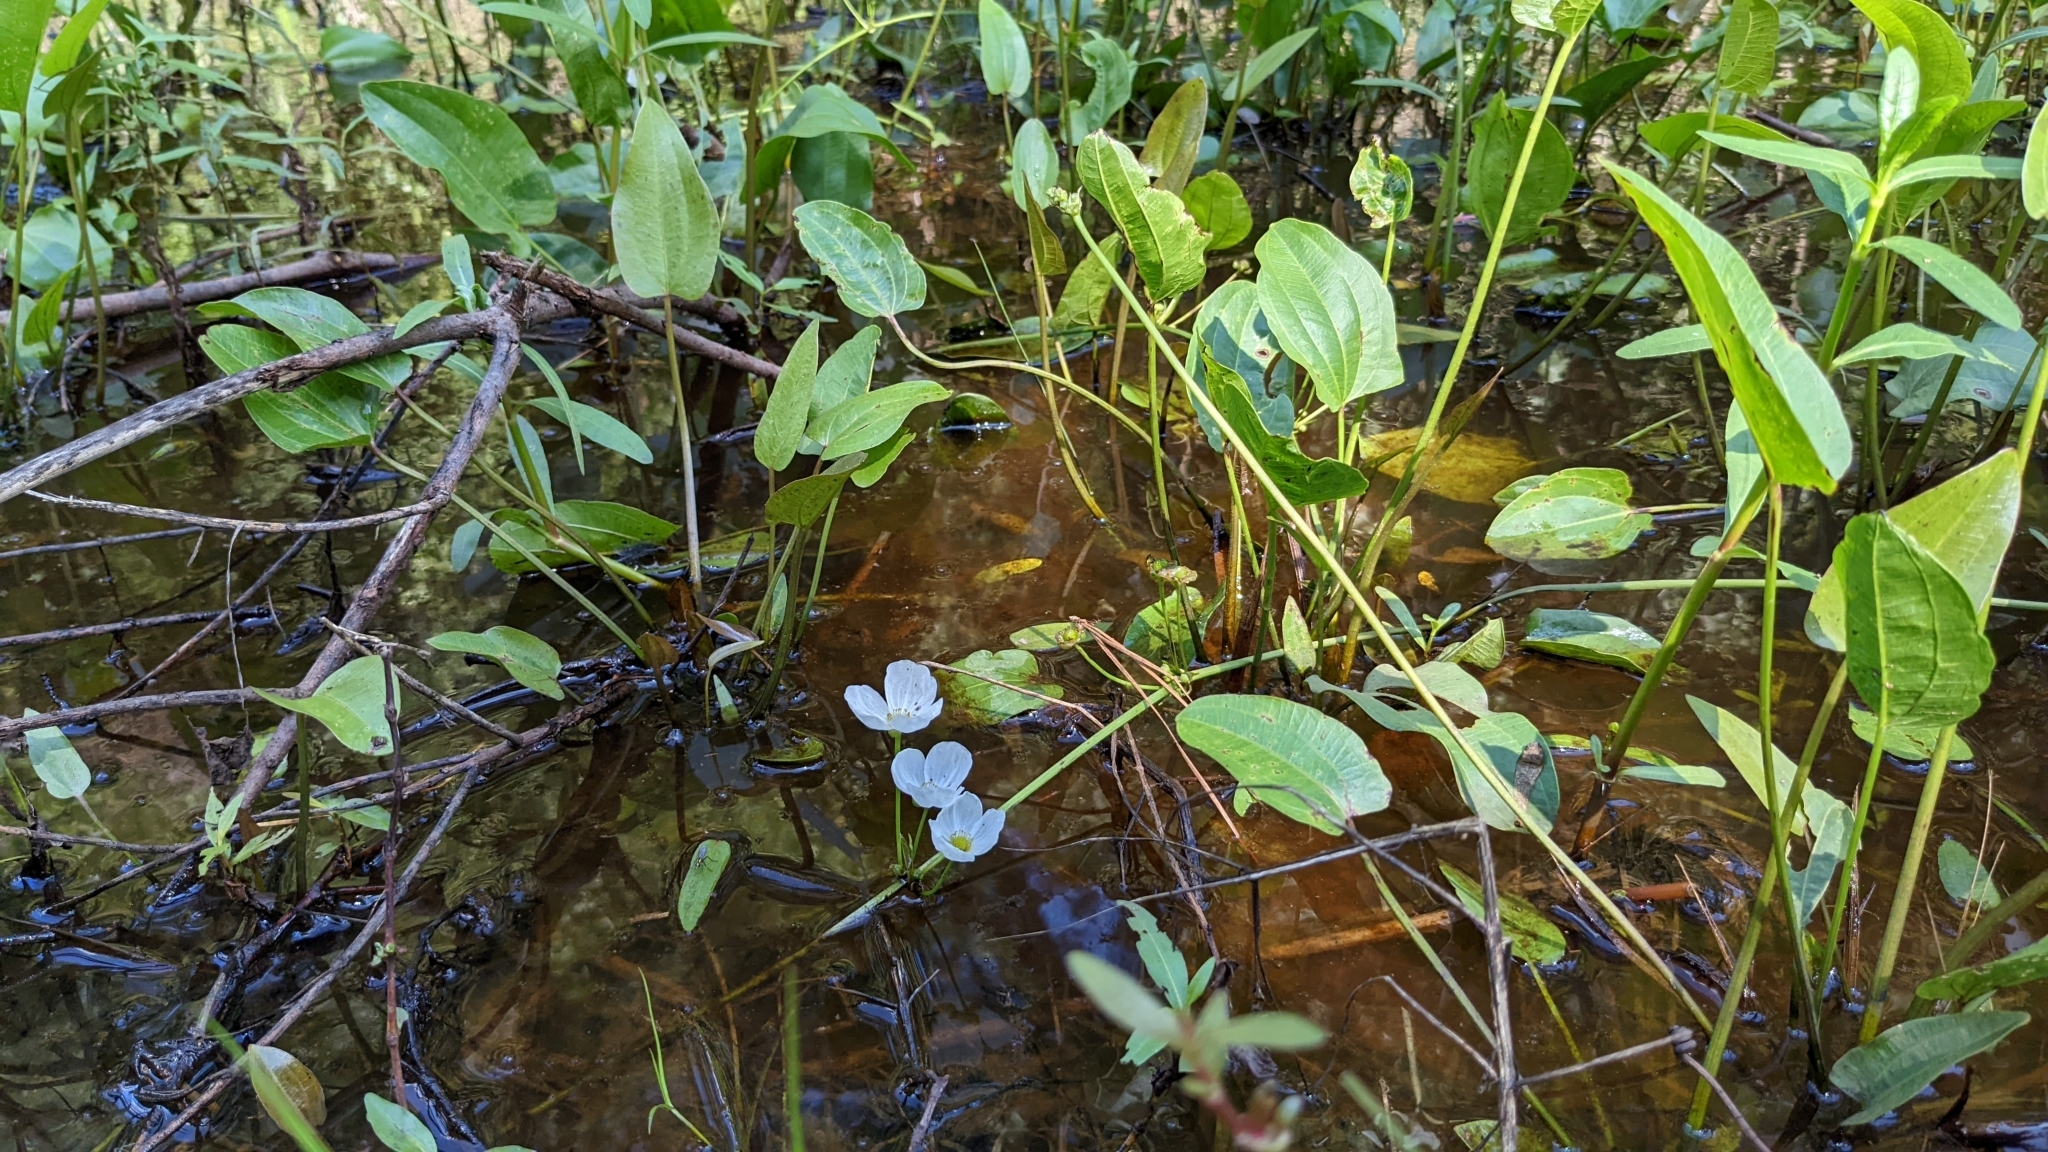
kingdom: Plantae
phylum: Tracheophyta
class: Liliopsida
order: Alismatales
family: Alismataceae
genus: Aquarius
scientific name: Aquarius cordifolius
